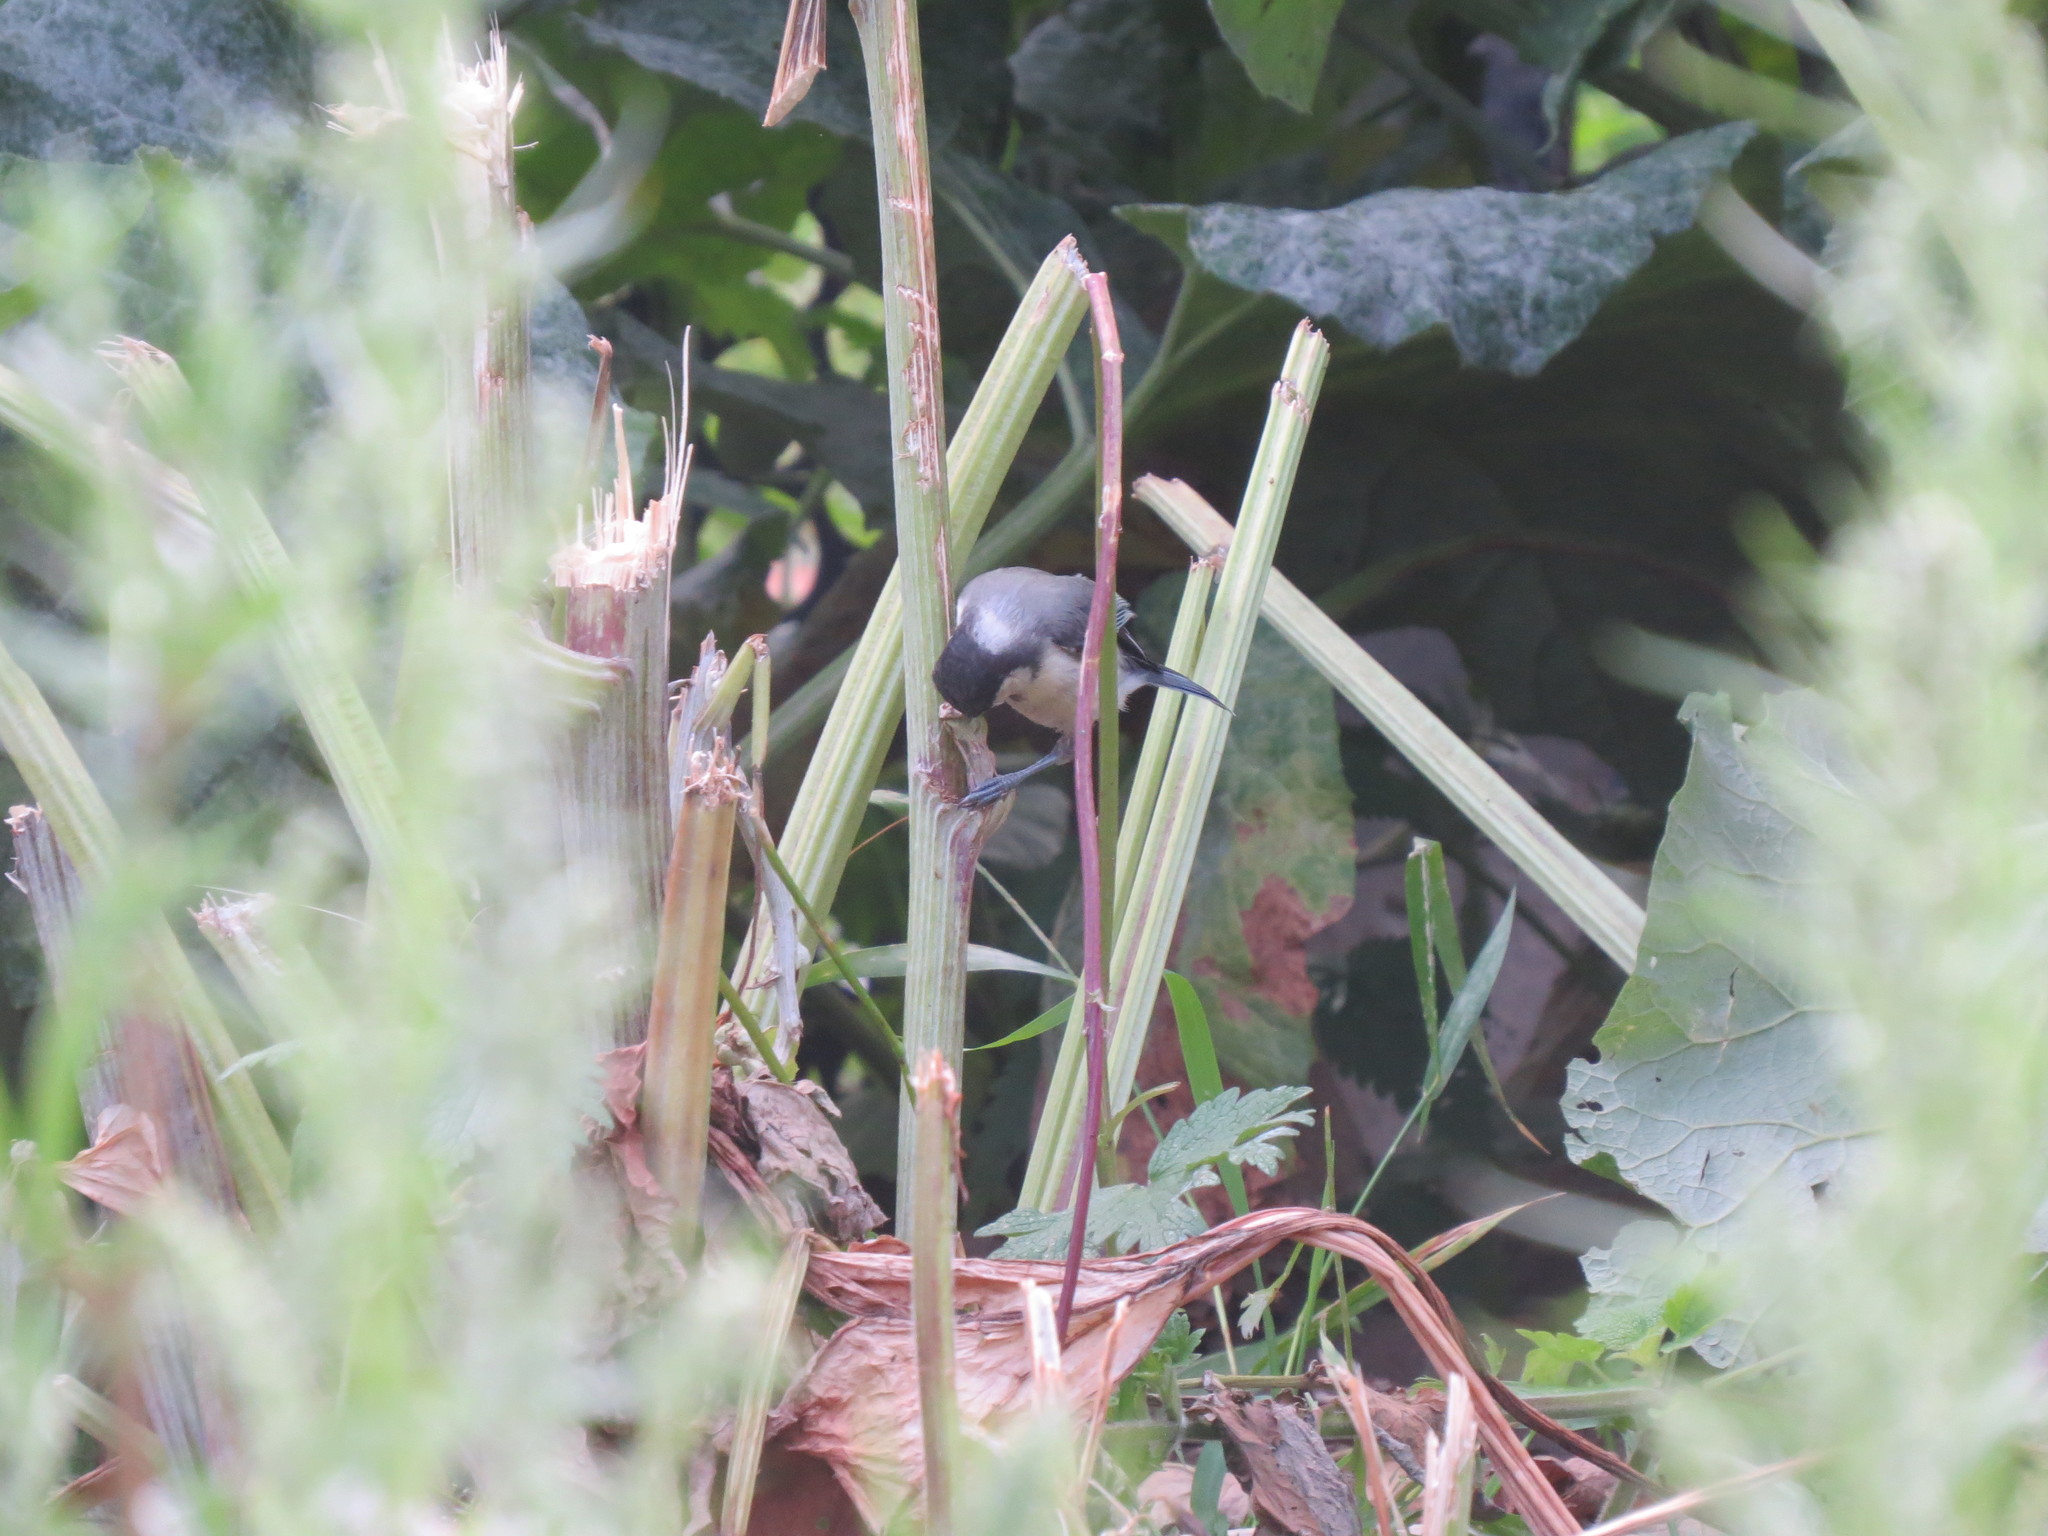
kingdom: Animalia
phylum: Chordata
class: Aves
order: Passeriformes
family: Paridae
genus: Parus
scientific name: Parus major
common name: Great tit
